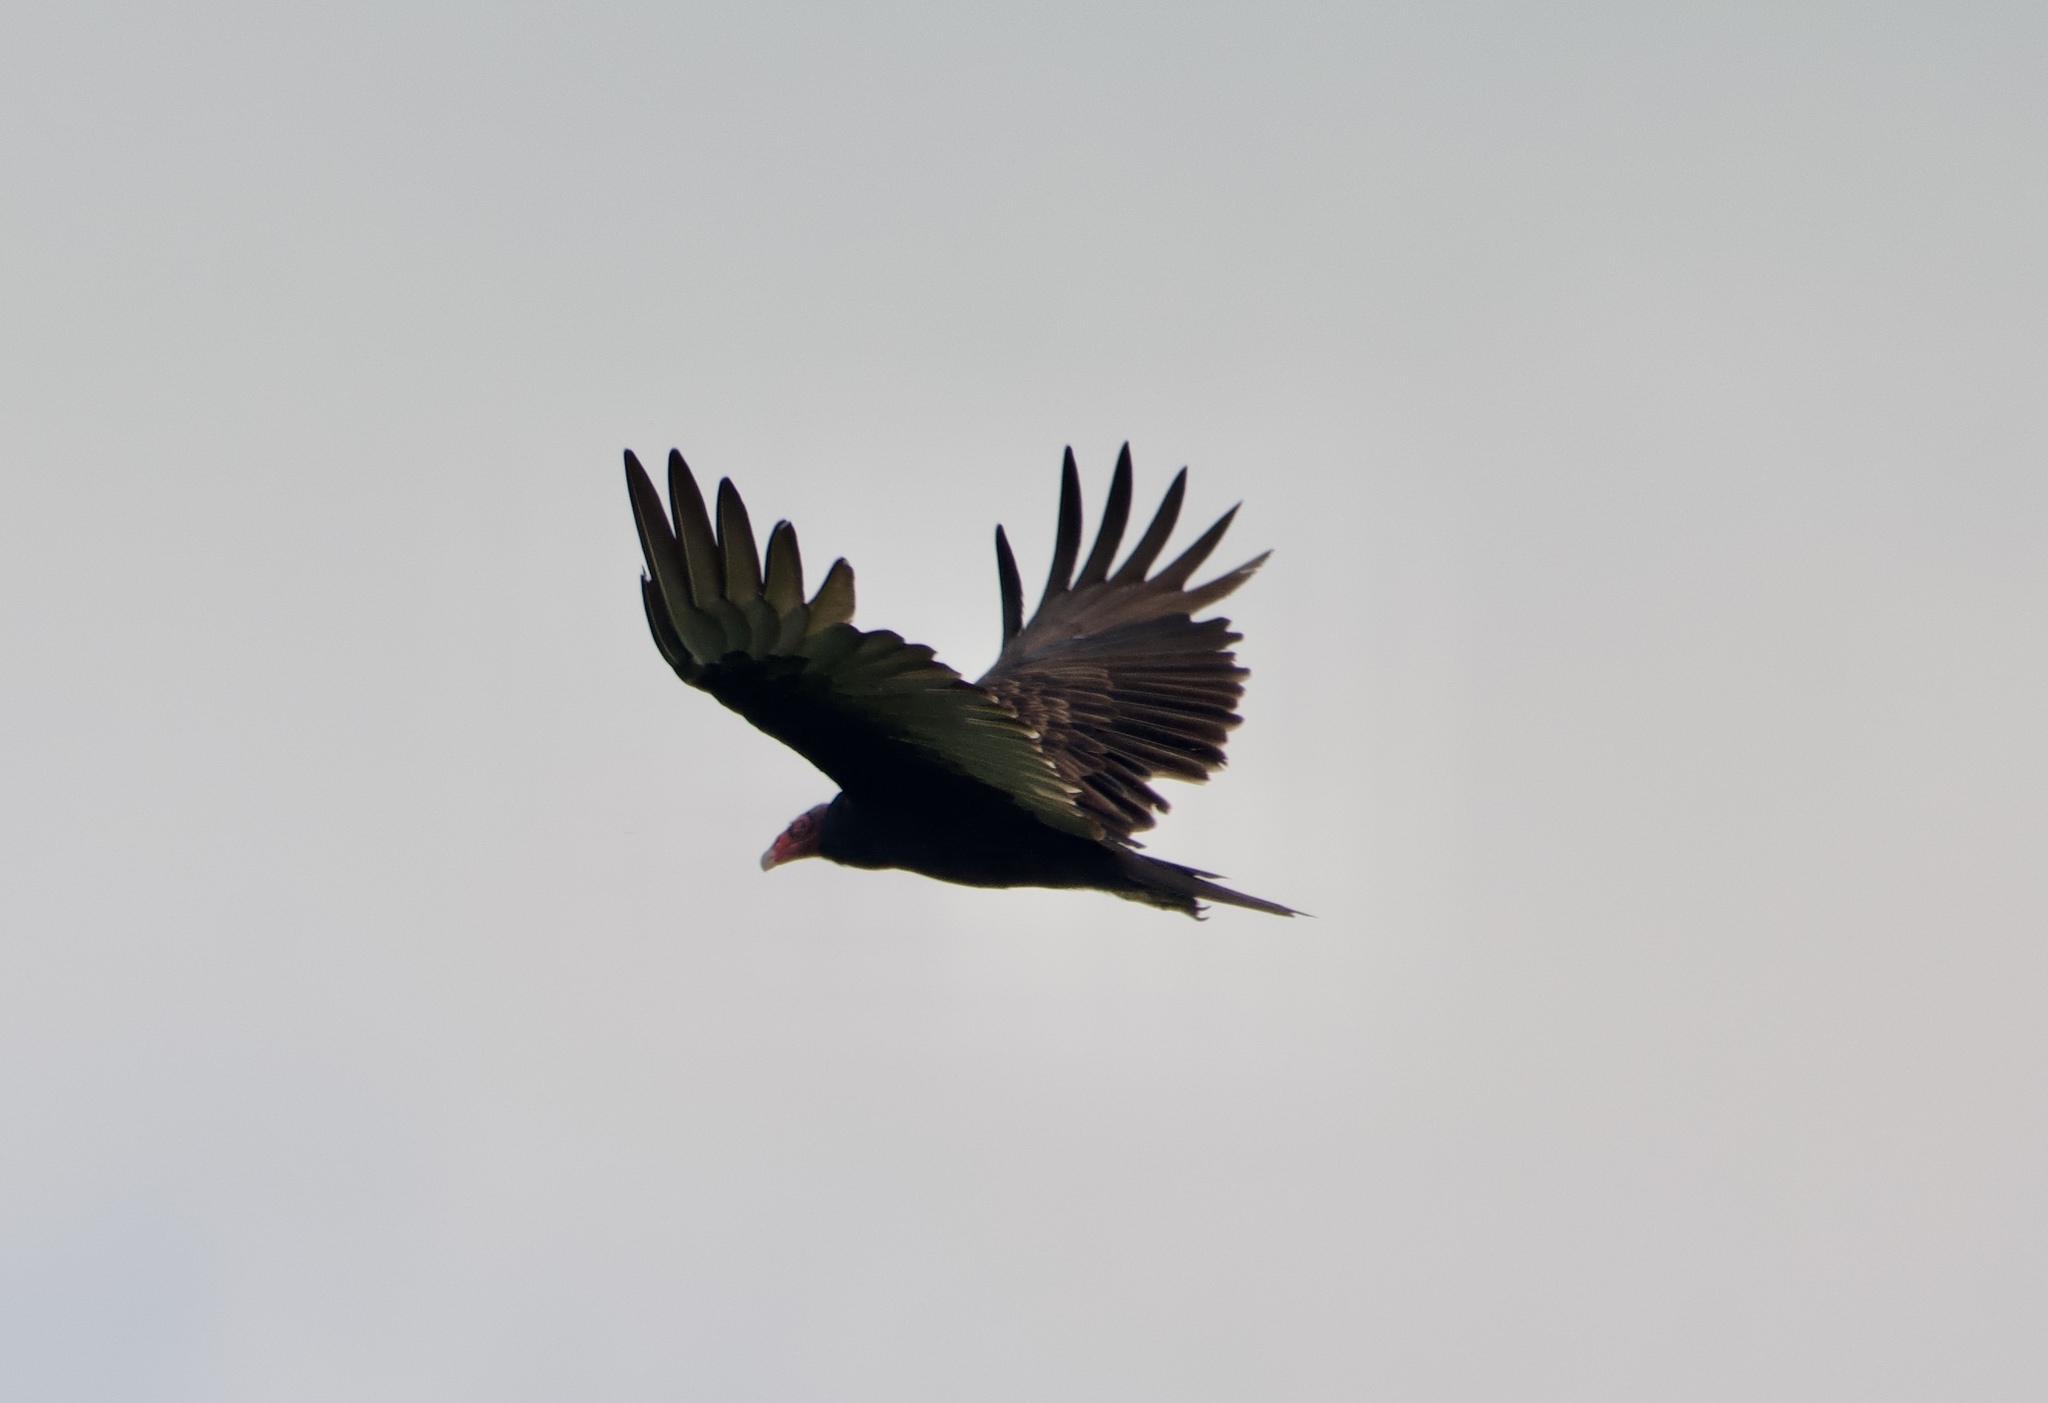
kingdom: Animalia
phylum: Chordata
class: Aves
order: Accipitriformes
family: Cathartidae
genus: Cathartes
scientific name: Cathartes aura
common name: Turkey vulture
